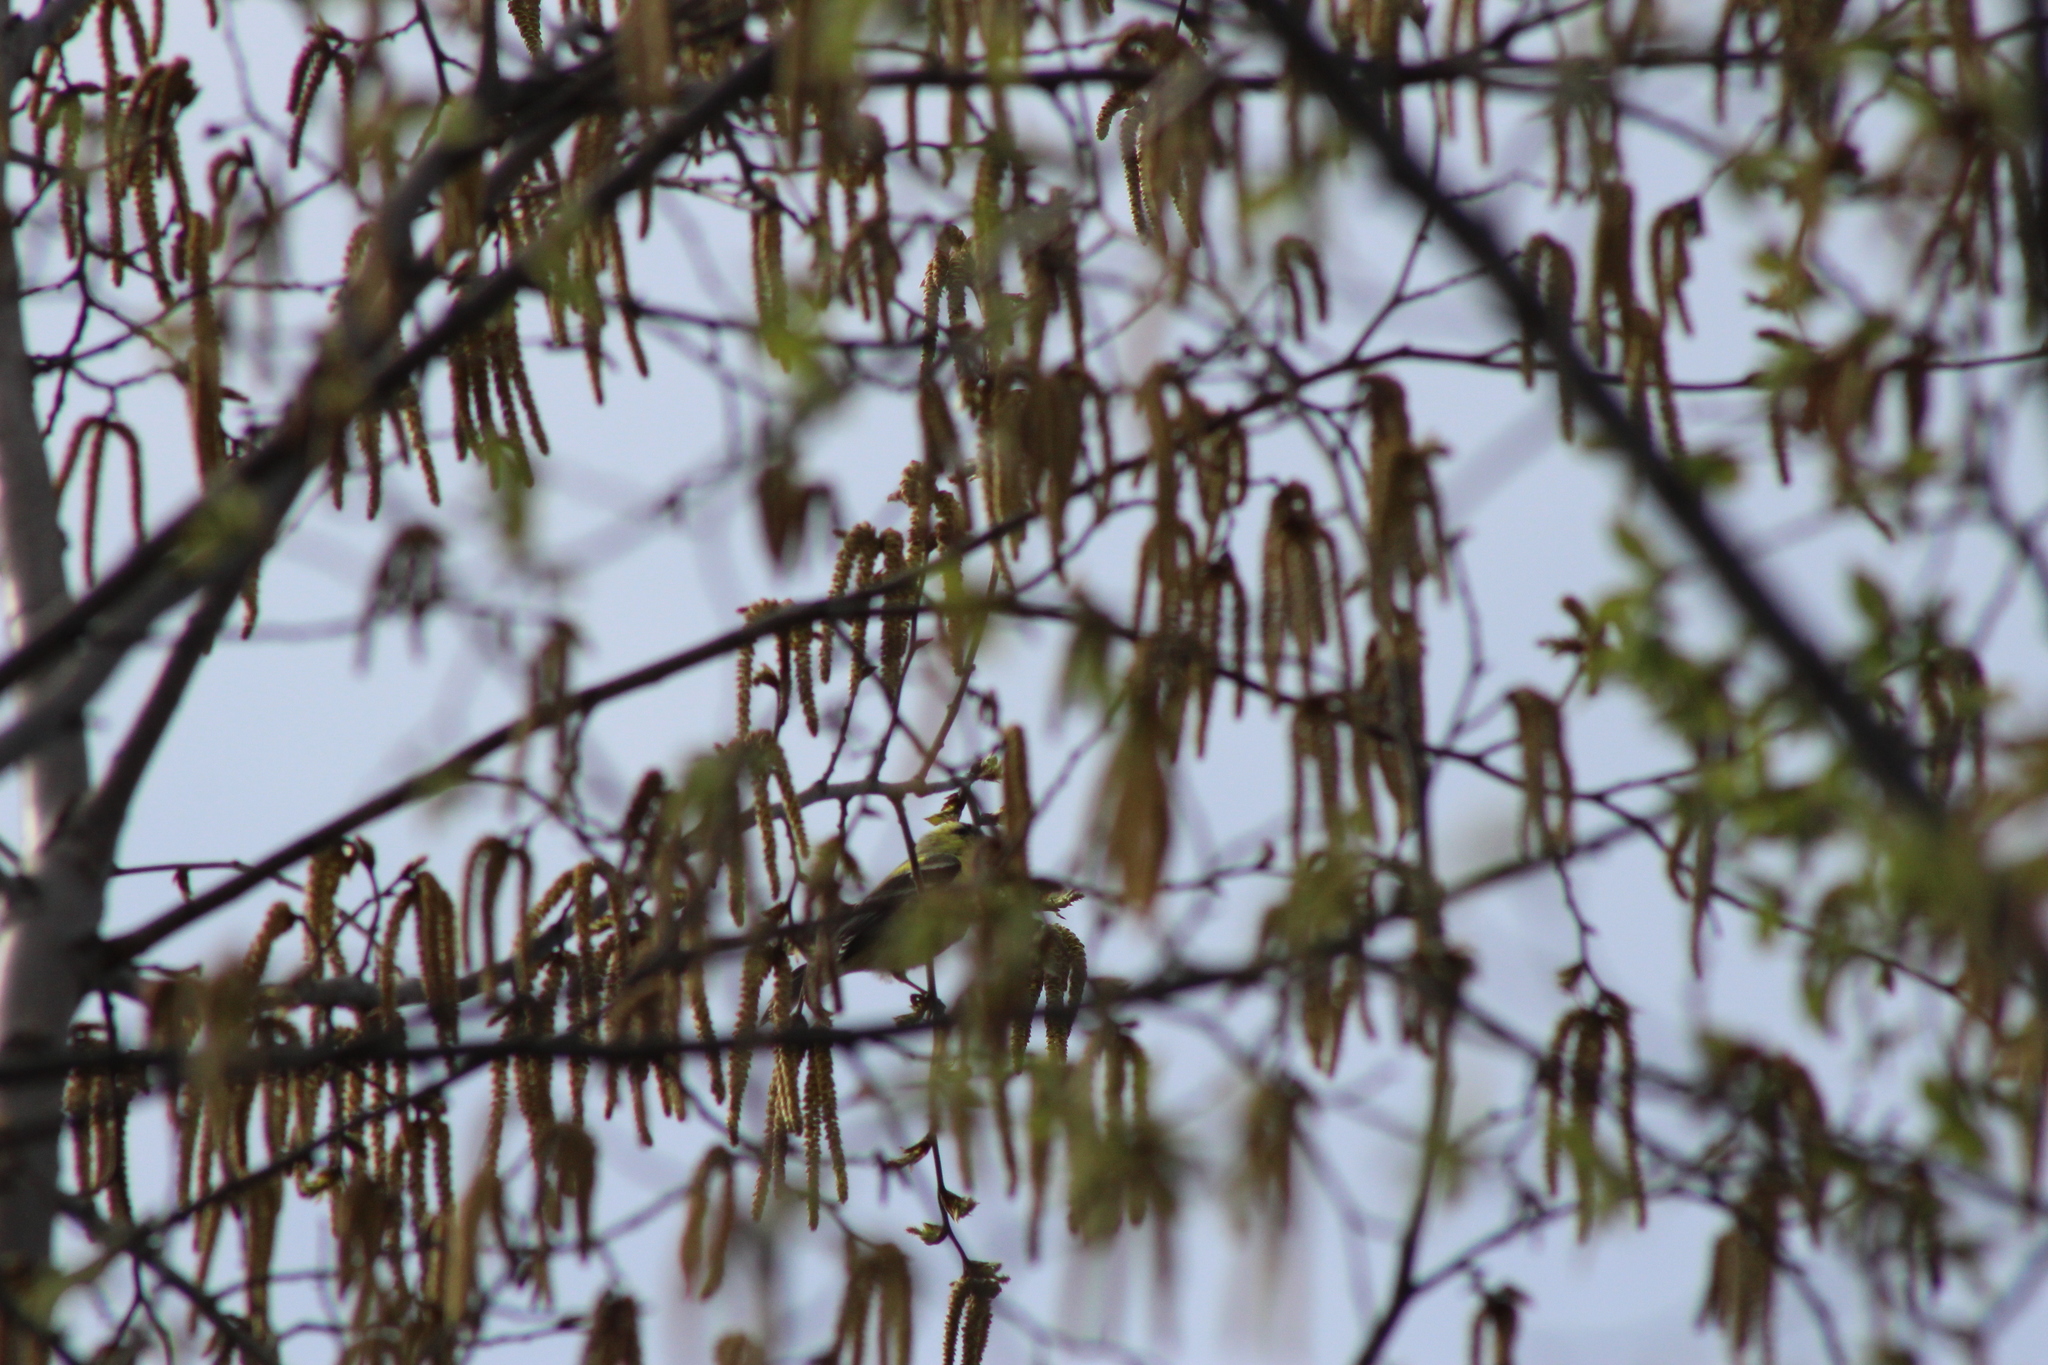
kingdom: Animalia
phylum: Chordata
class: Aves
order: Passeriformes
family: Fringillidae
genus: Spinus
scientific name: Spinus tristis
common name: American goldfinch
